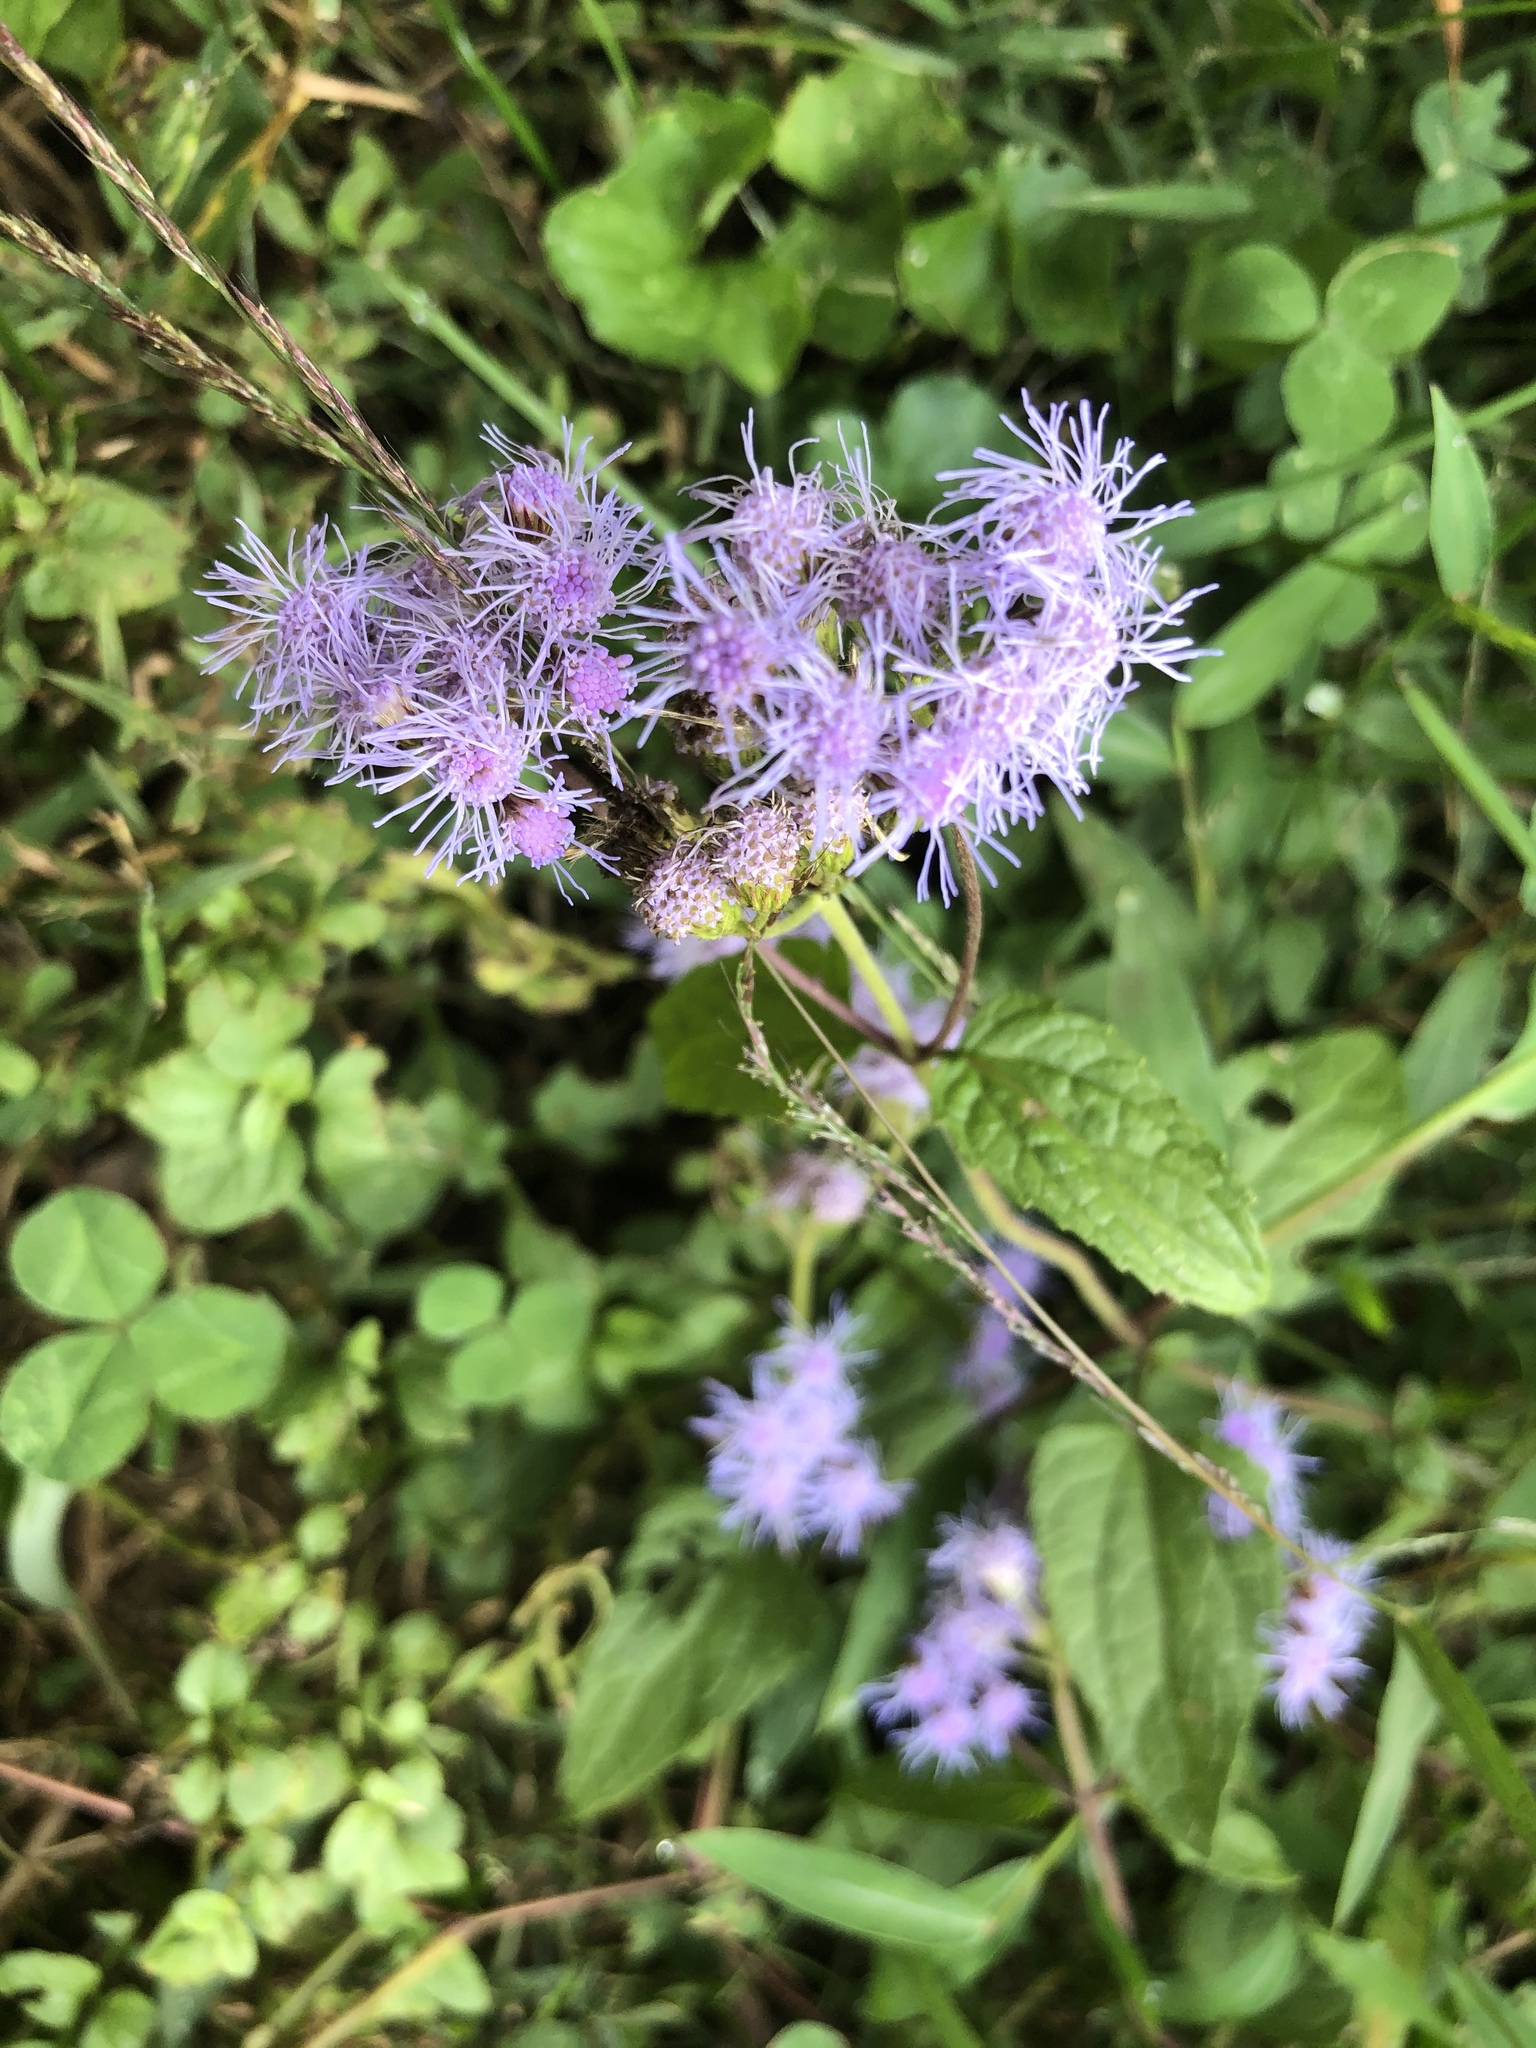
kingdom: Plantae
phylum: Tracheophyta
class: Magnoliopsida
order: Asterales
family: Asteraceae
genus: Conoclinium
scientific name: Conoclinium coelestinum
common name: Blue mistflower
